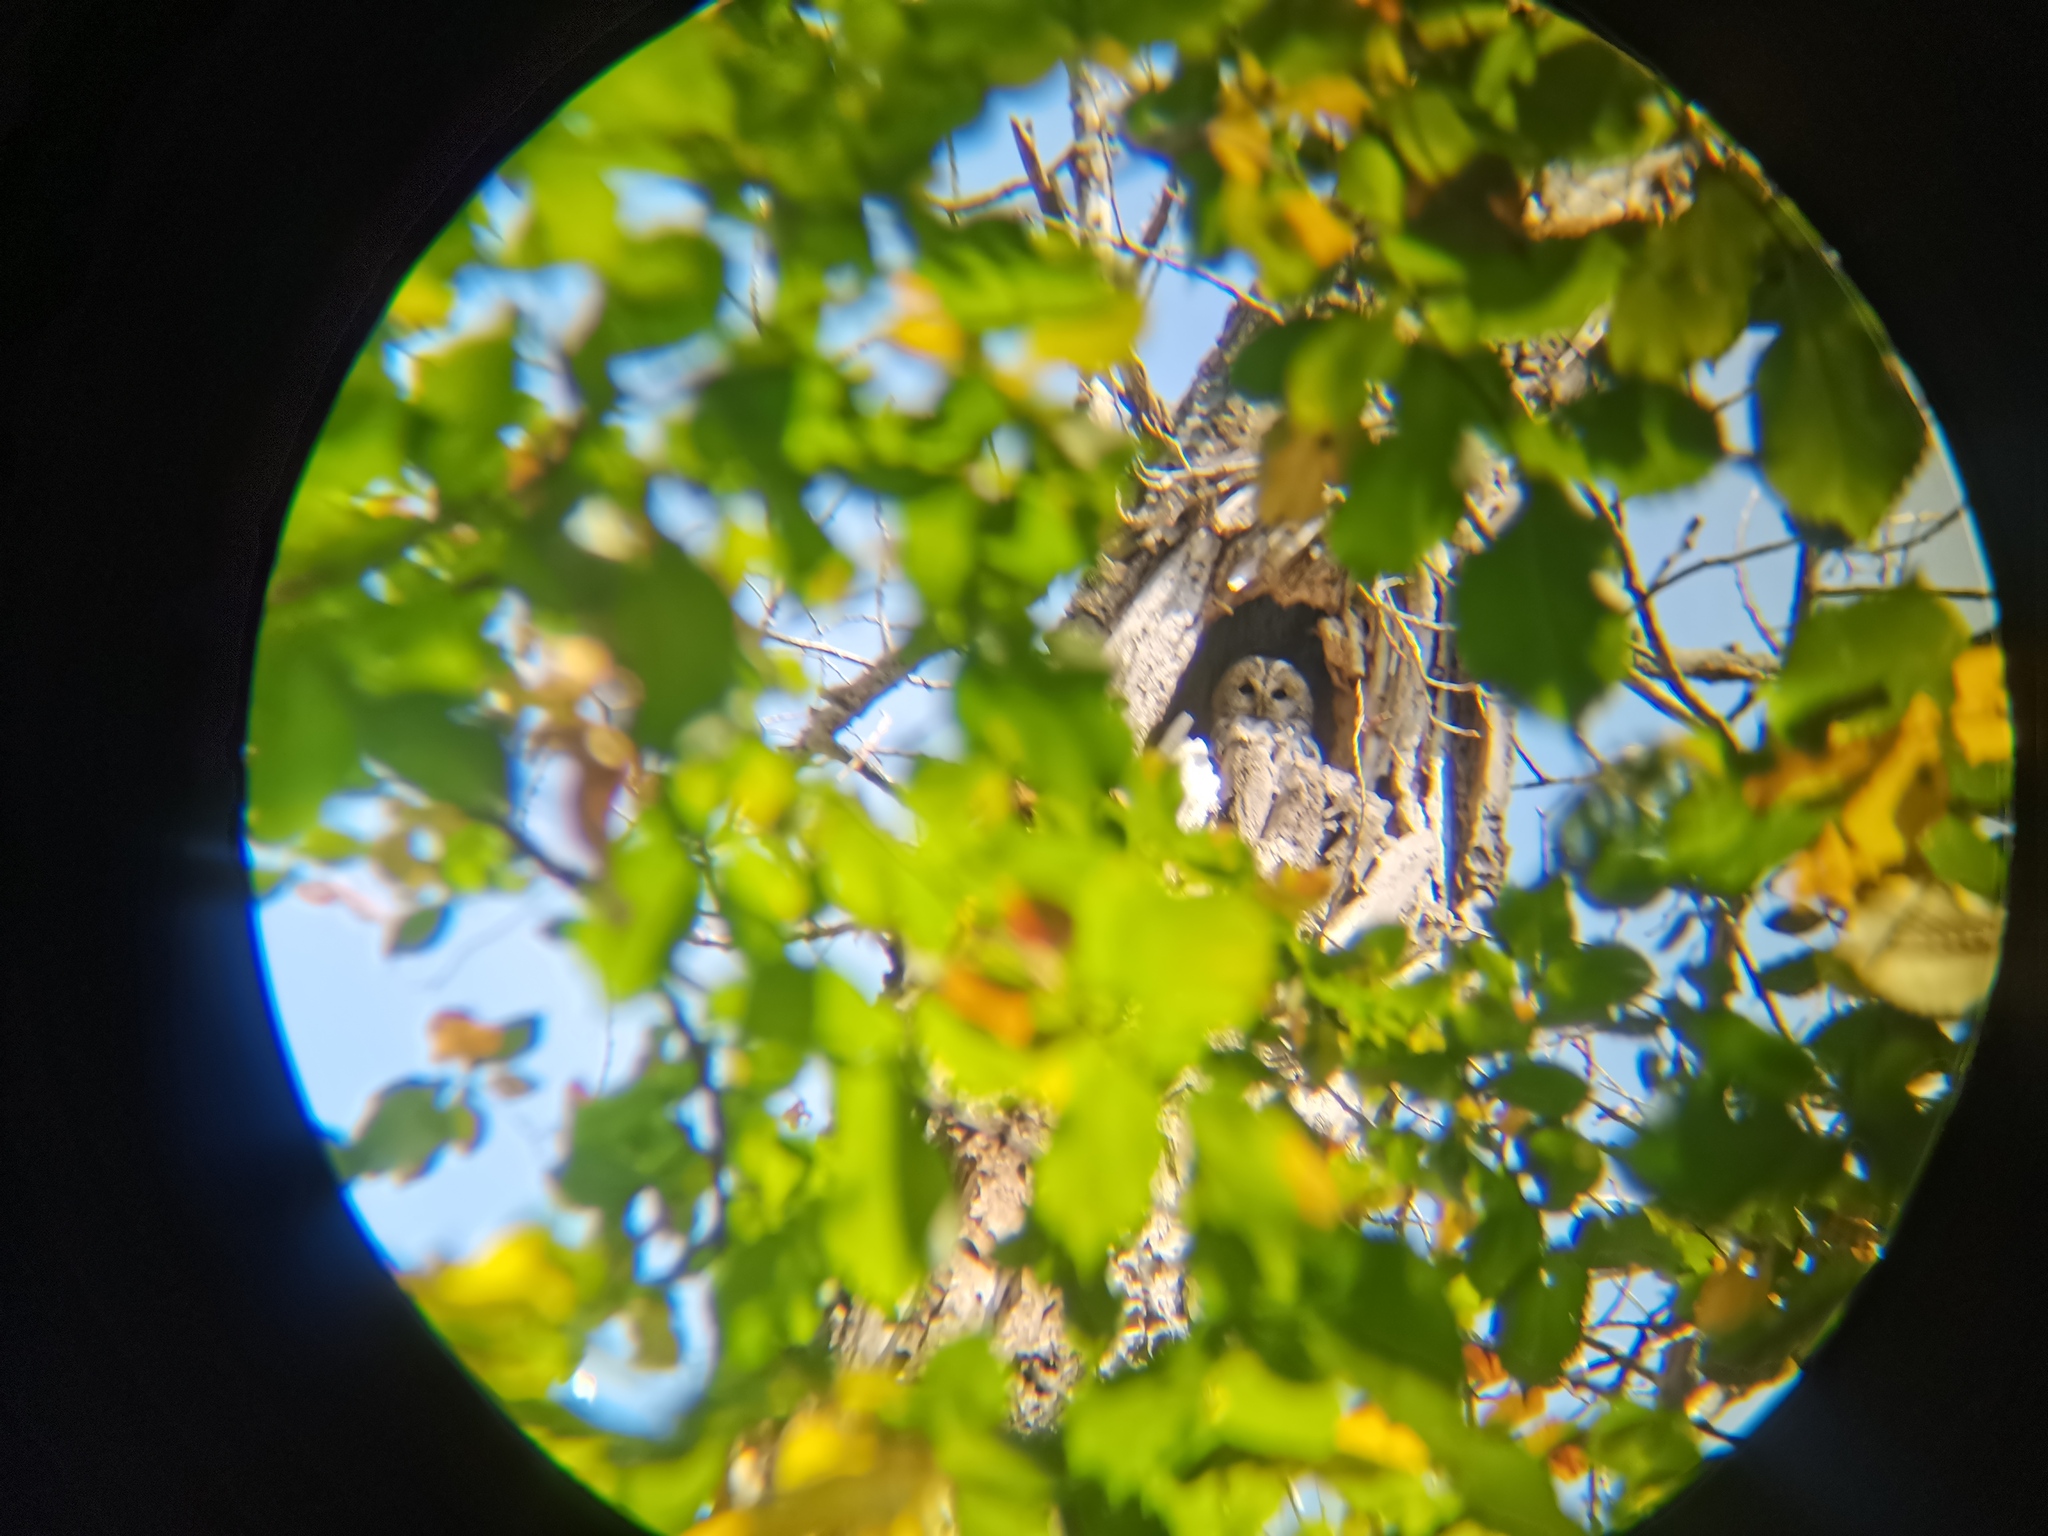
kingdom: Animalia
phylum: Chordata
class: Aves
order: Strigiformes
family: Strigidae
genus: Strix
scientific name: Strix aluco
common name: Tawny owl
